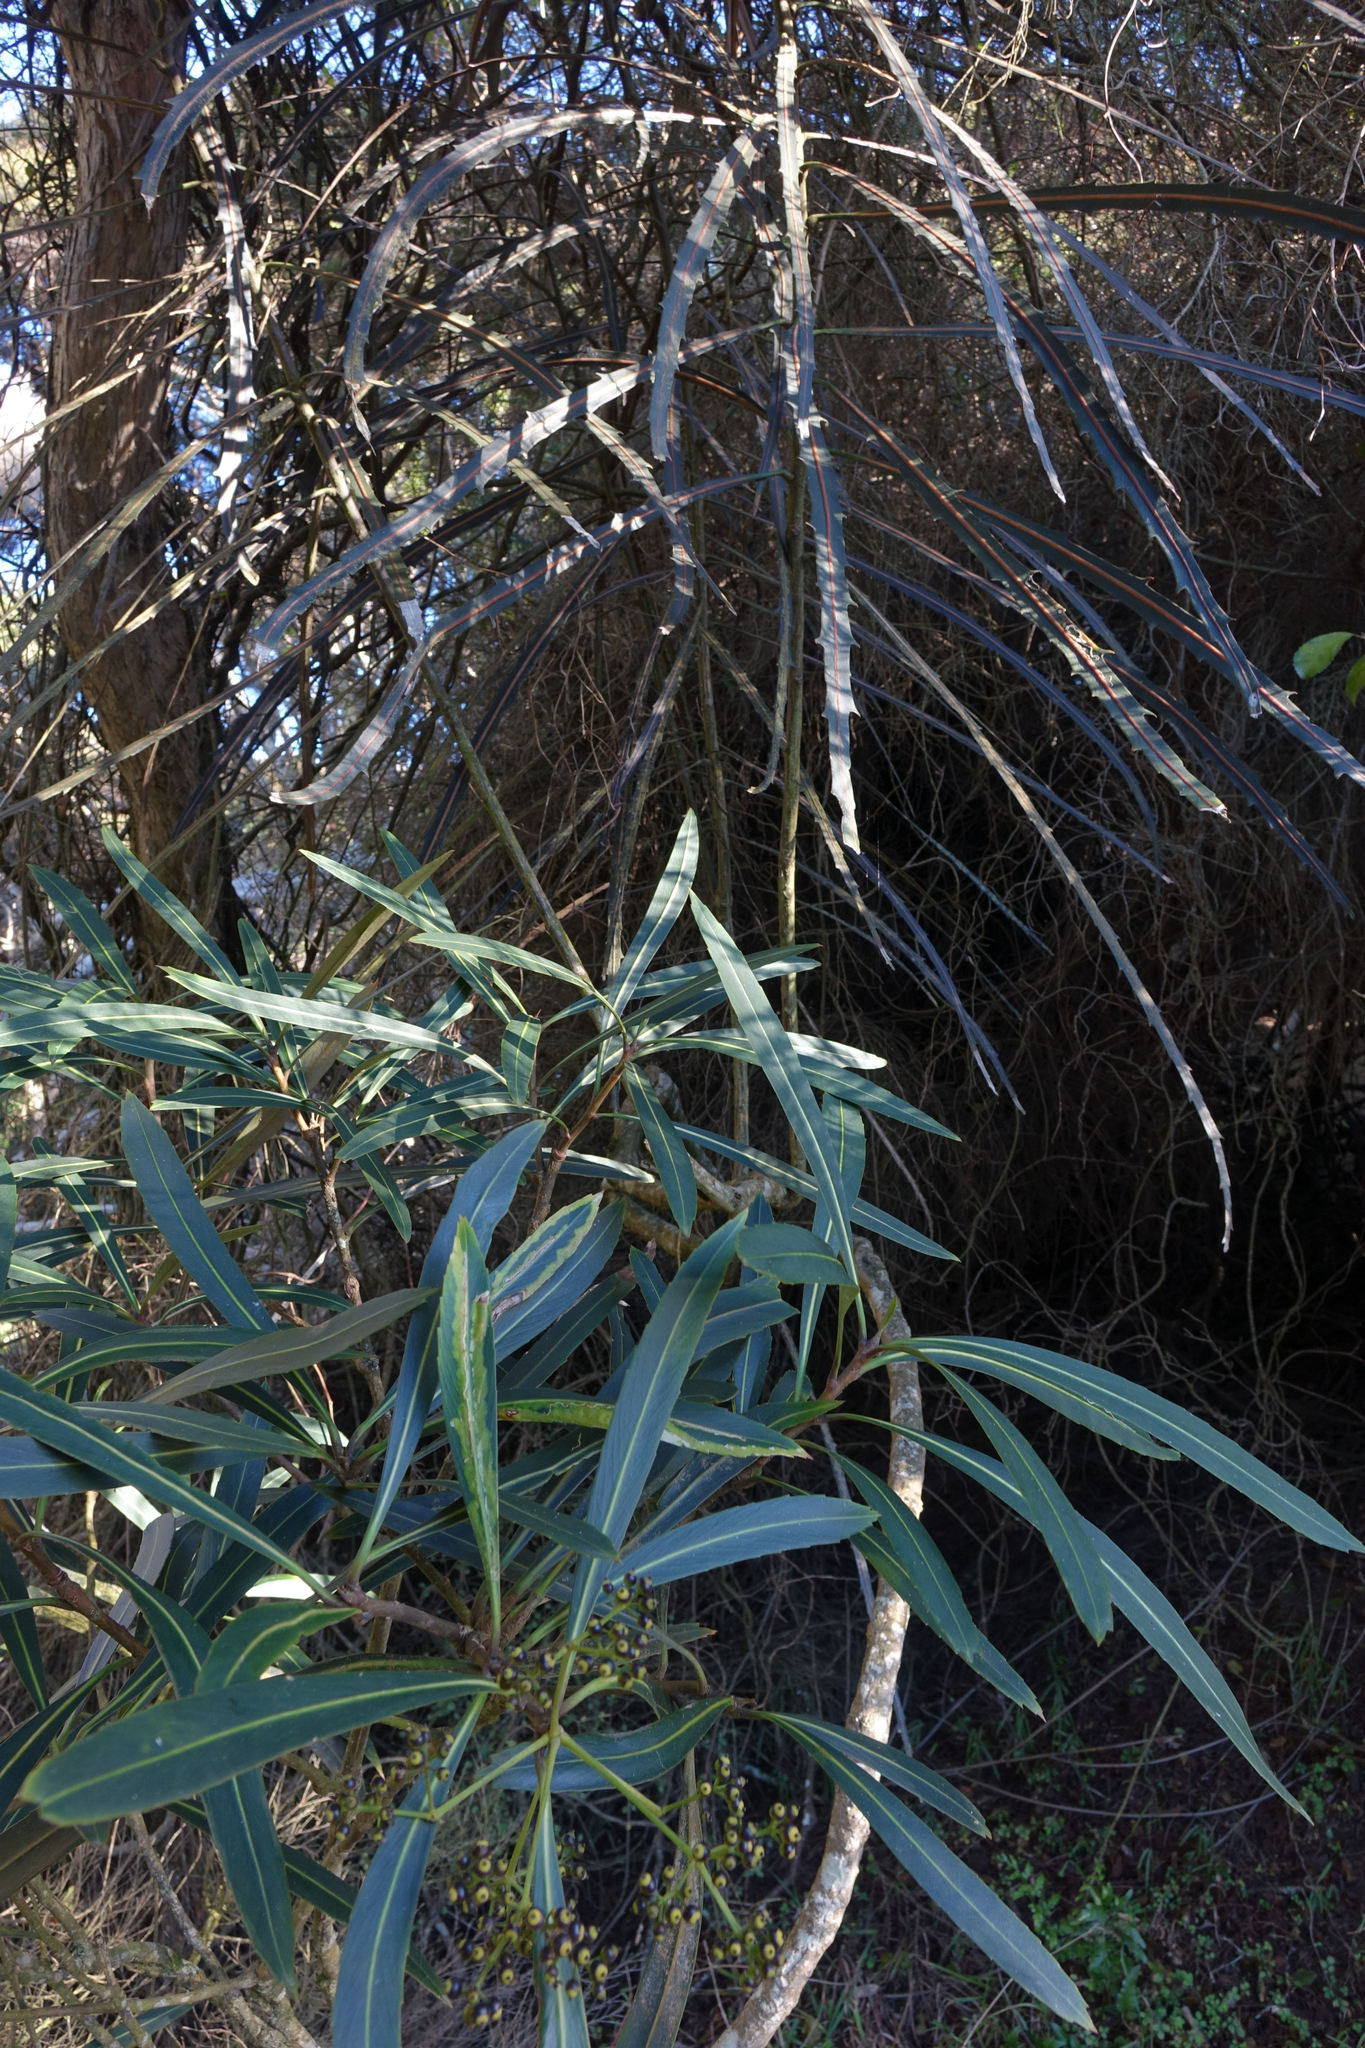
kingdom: Plantae
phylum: Tracheophyta
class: Magnoliopsida
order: Apiales
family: Araliaceae
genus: Pseudopanax
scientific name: Pseudopanax crassifolius
